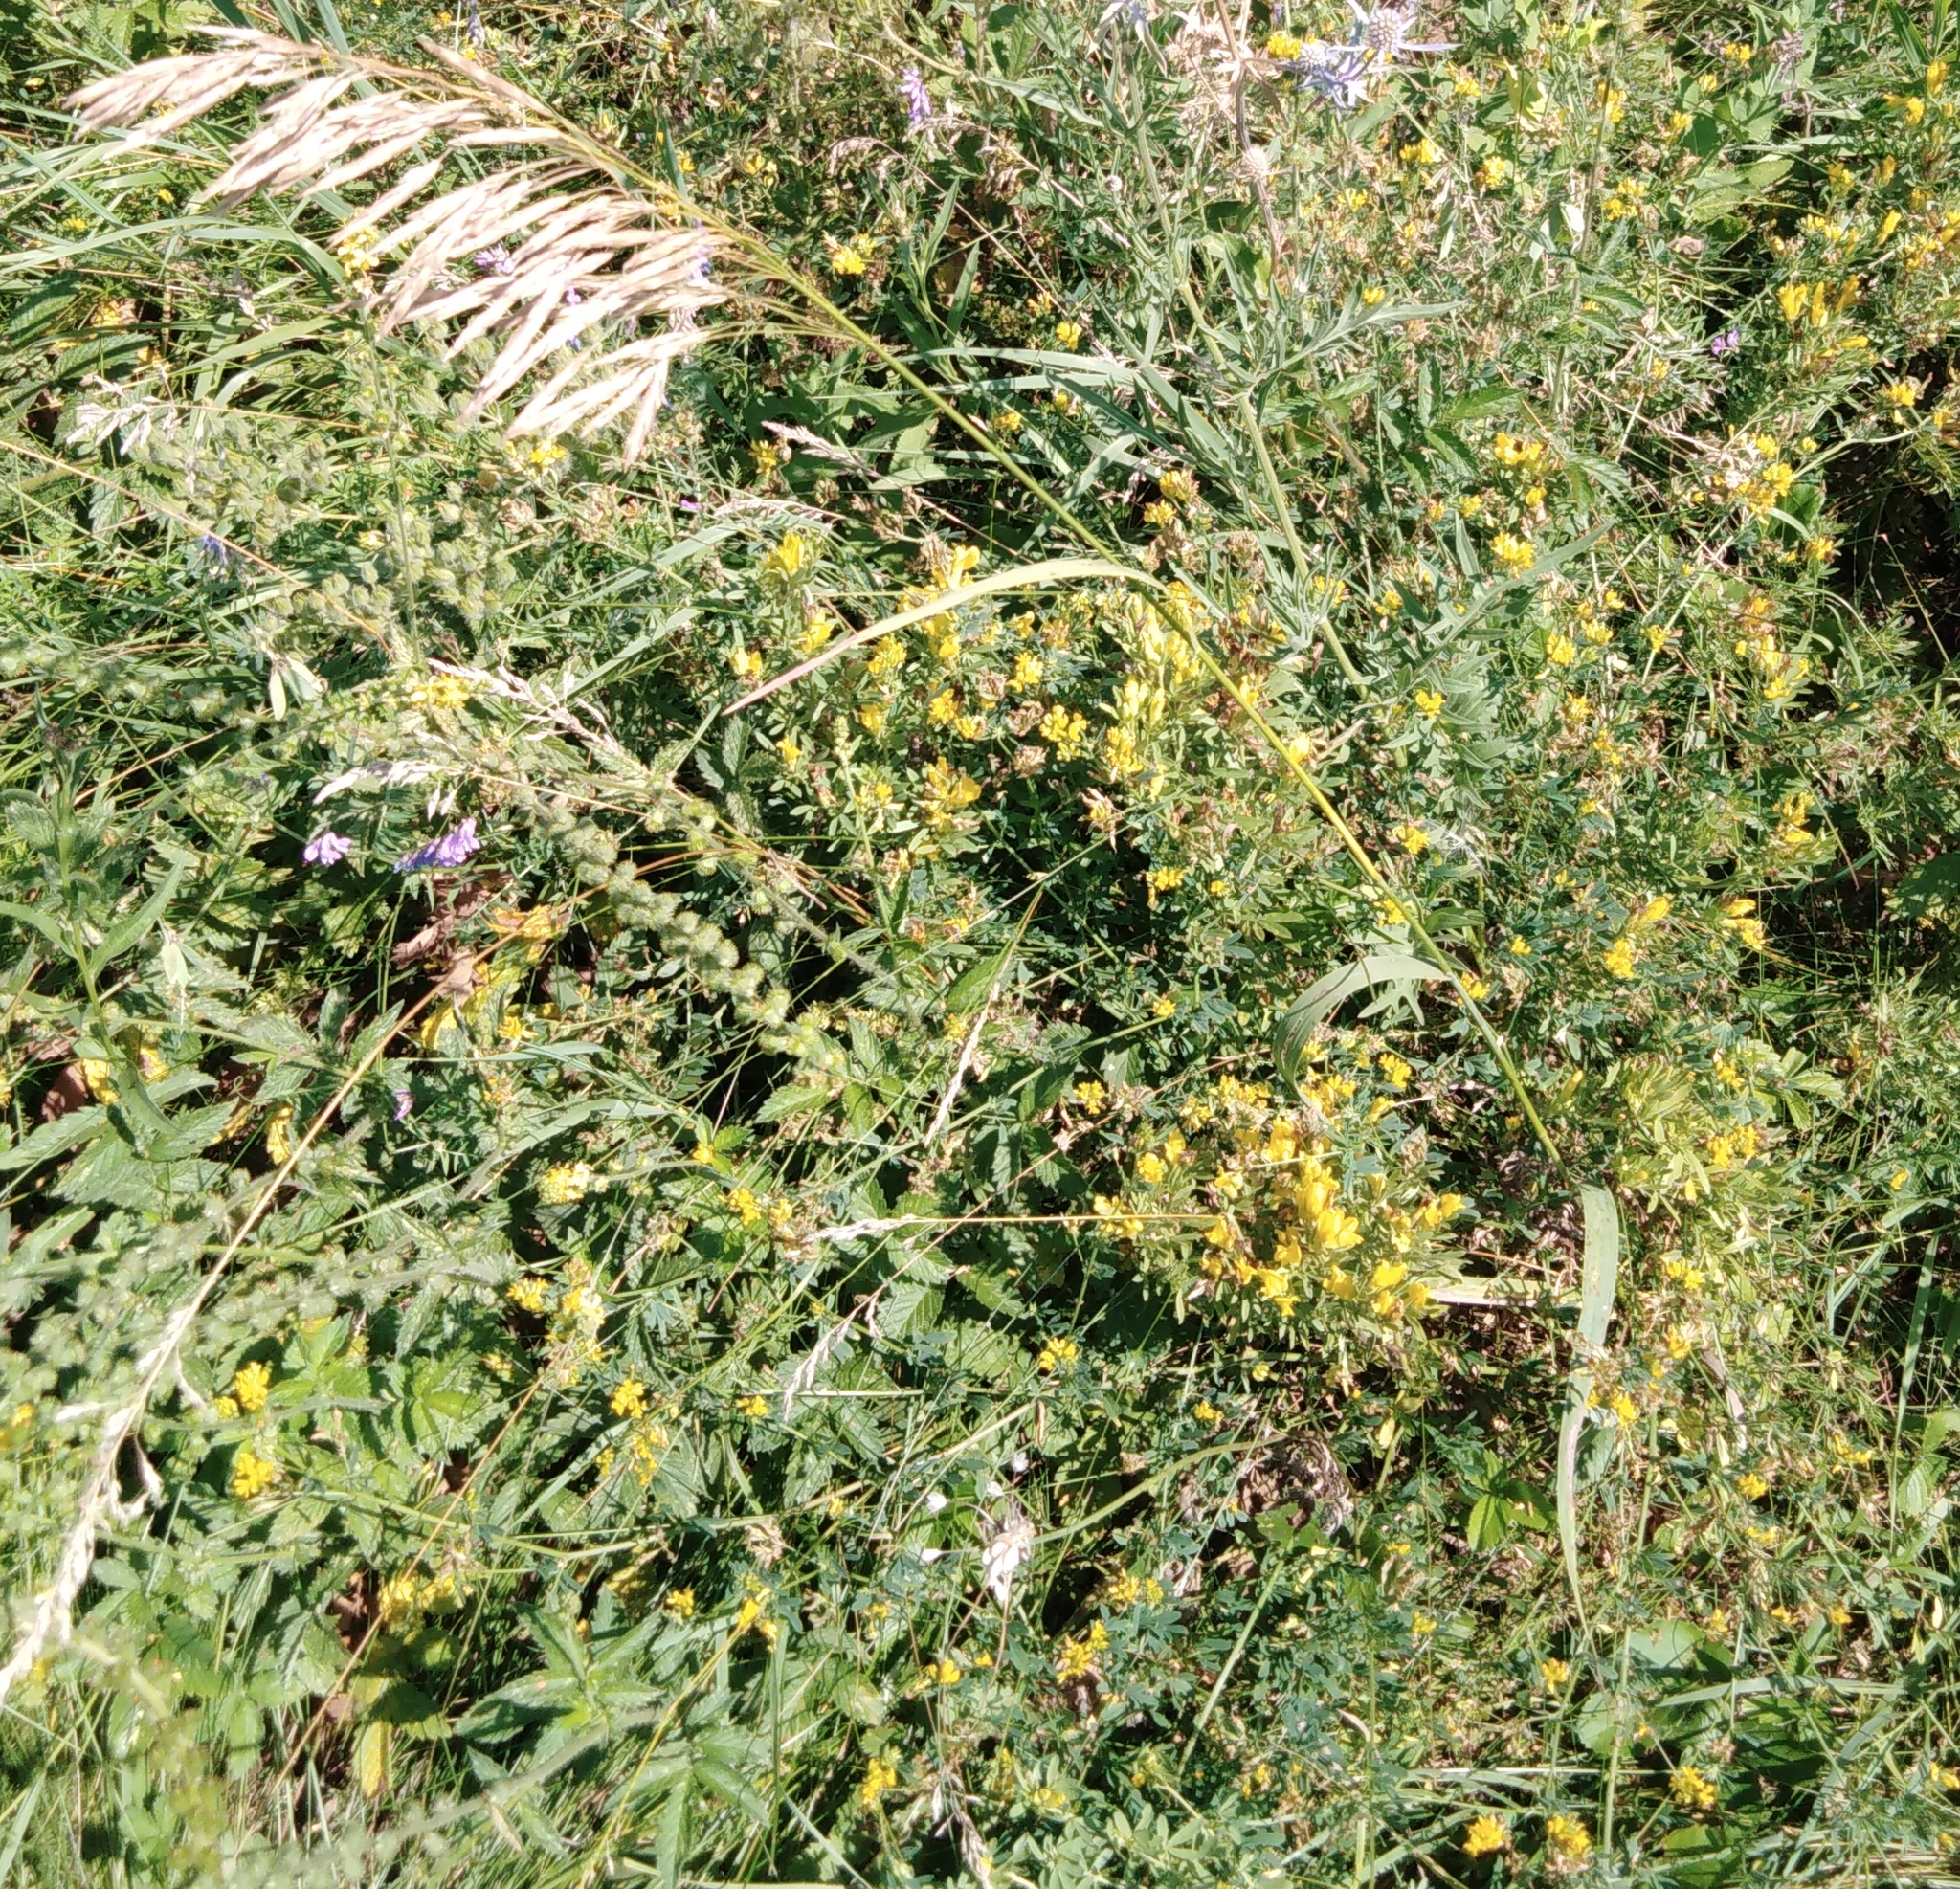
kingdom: Plantae
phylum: Tracheophyta
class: Liliopsida
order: Poales
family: Poaceae
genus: Bromus
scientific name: Bromus inermis
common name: Smooth brome
